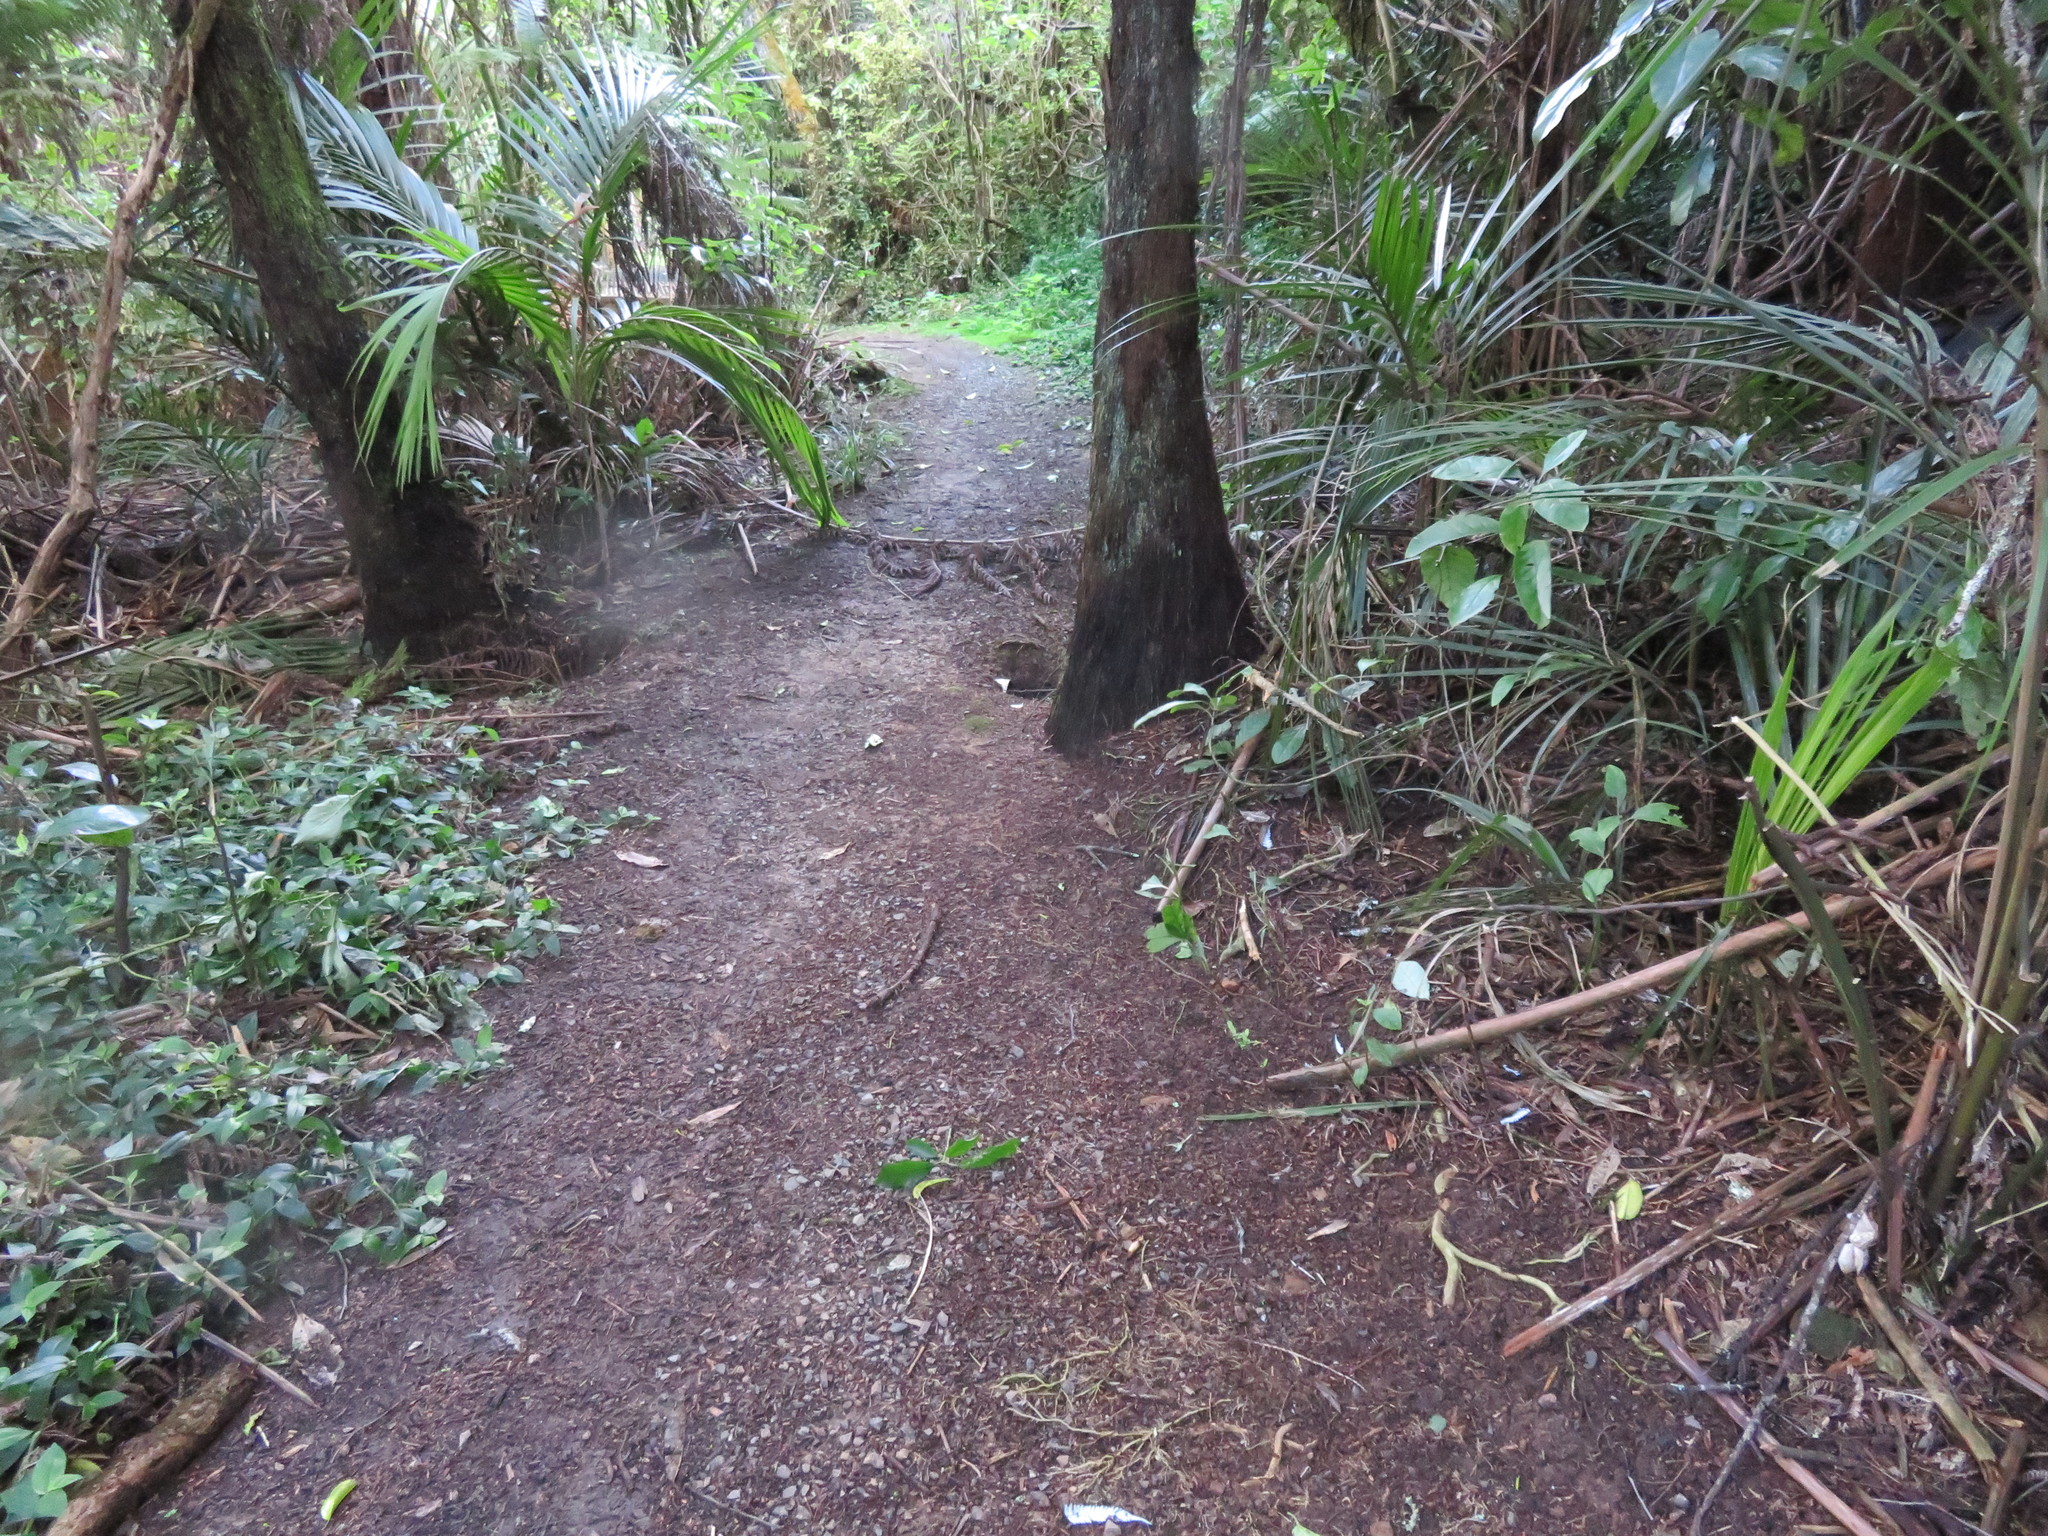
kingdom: Plantae
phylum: Tracheophyta
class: Liliopsida
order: Commelinales
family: Commelinaceae
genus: Tradescantia
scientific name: Tradescantia fluminensis
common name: Wandering-jew
